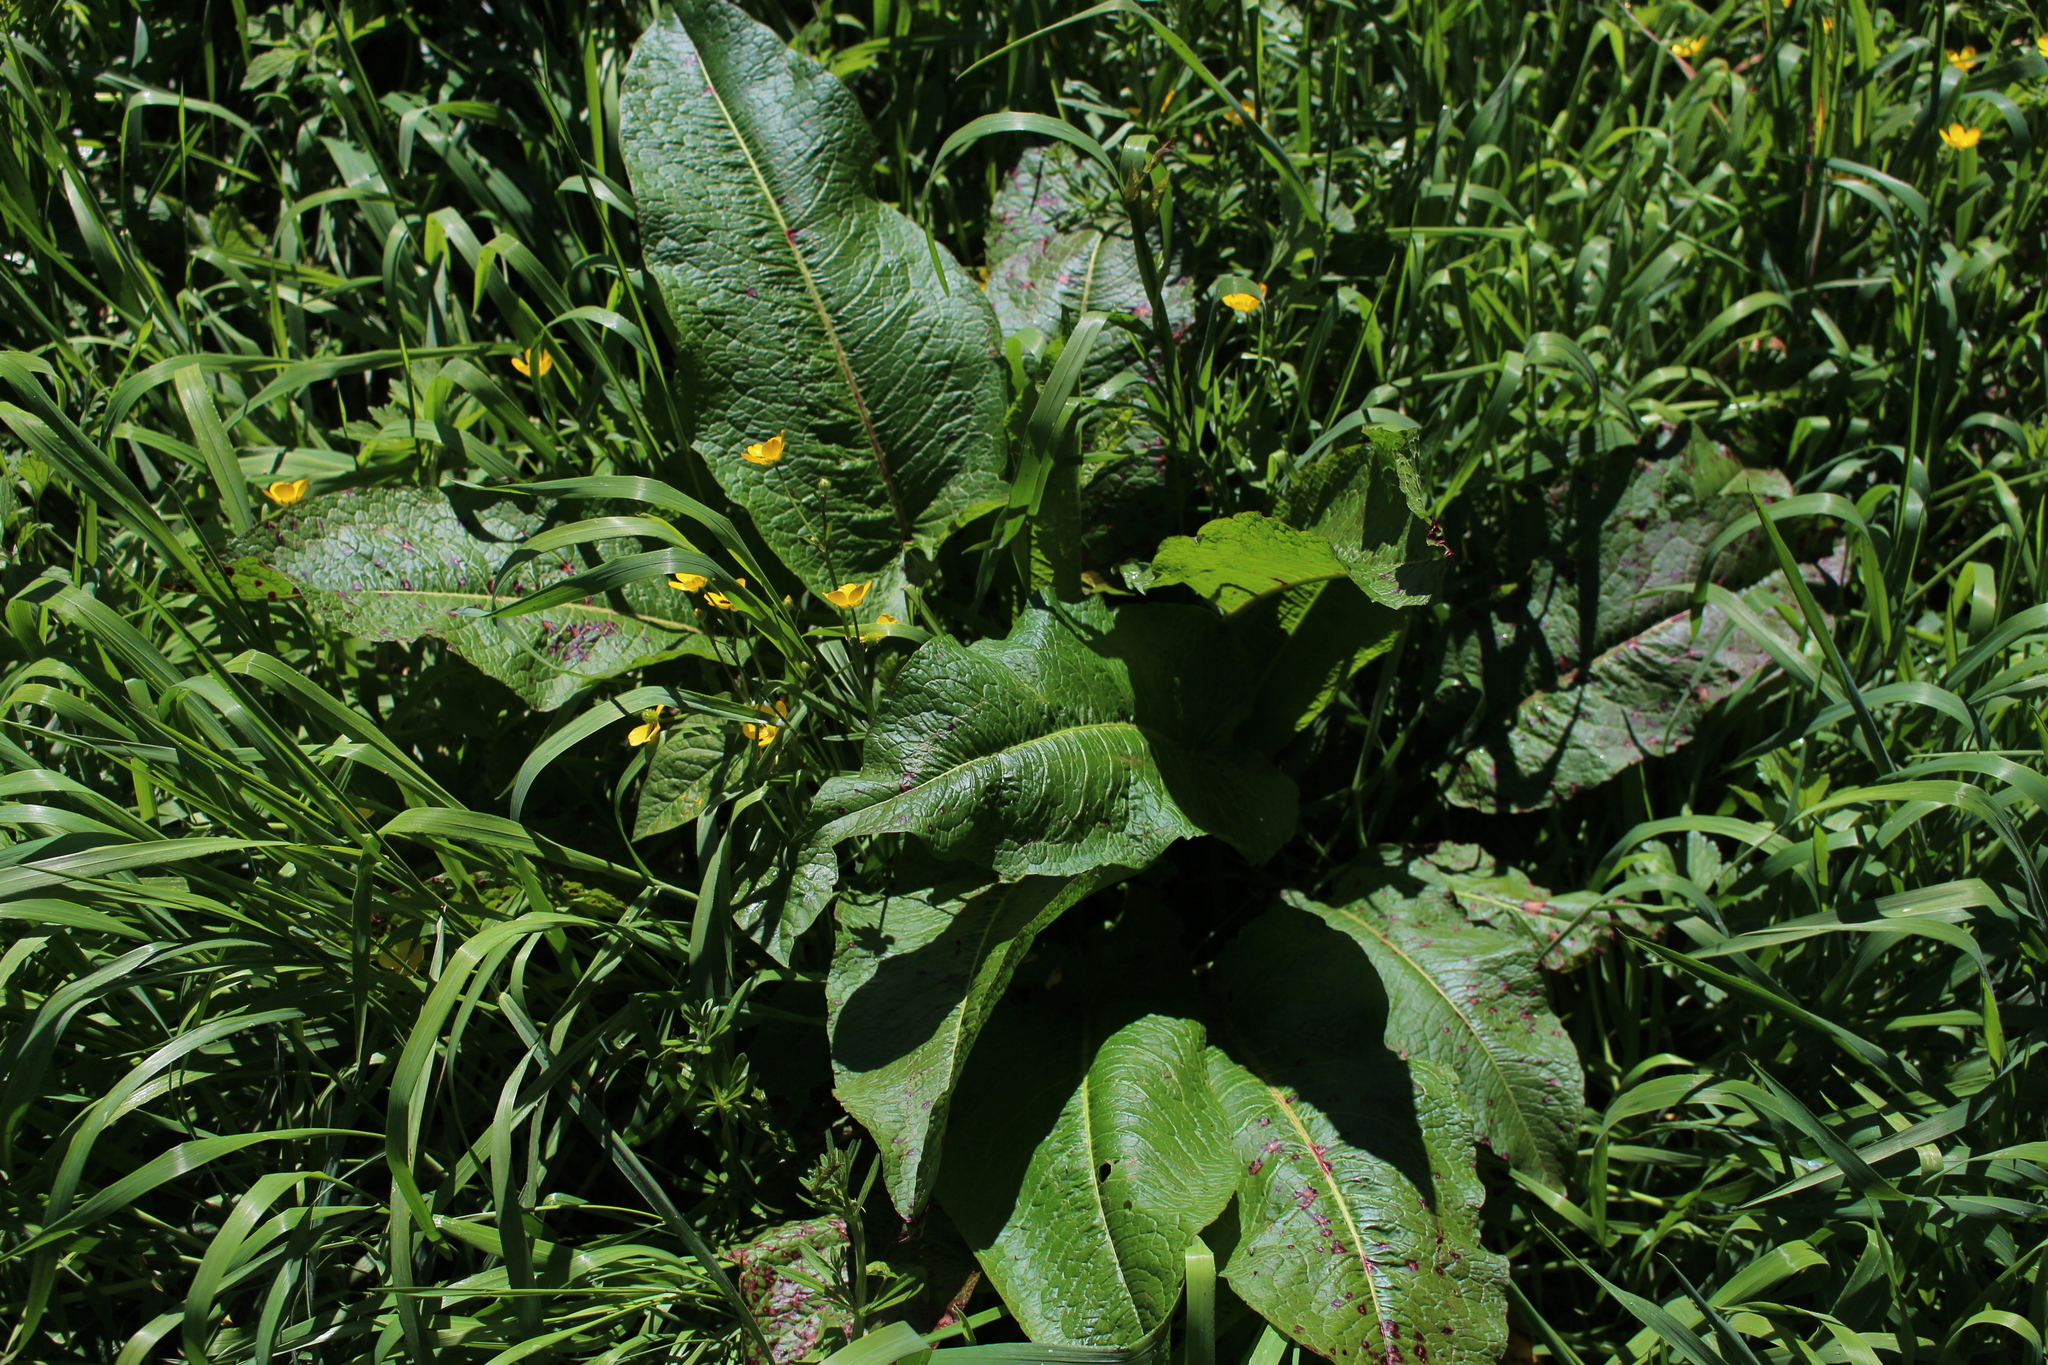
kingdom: Plantae
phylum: Tracheophyta
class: Magnoliopsida
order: Caryophyllales
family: Polygonaceae
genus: Rumex
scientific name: Rumex obtusifolius
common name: Bitter dock
